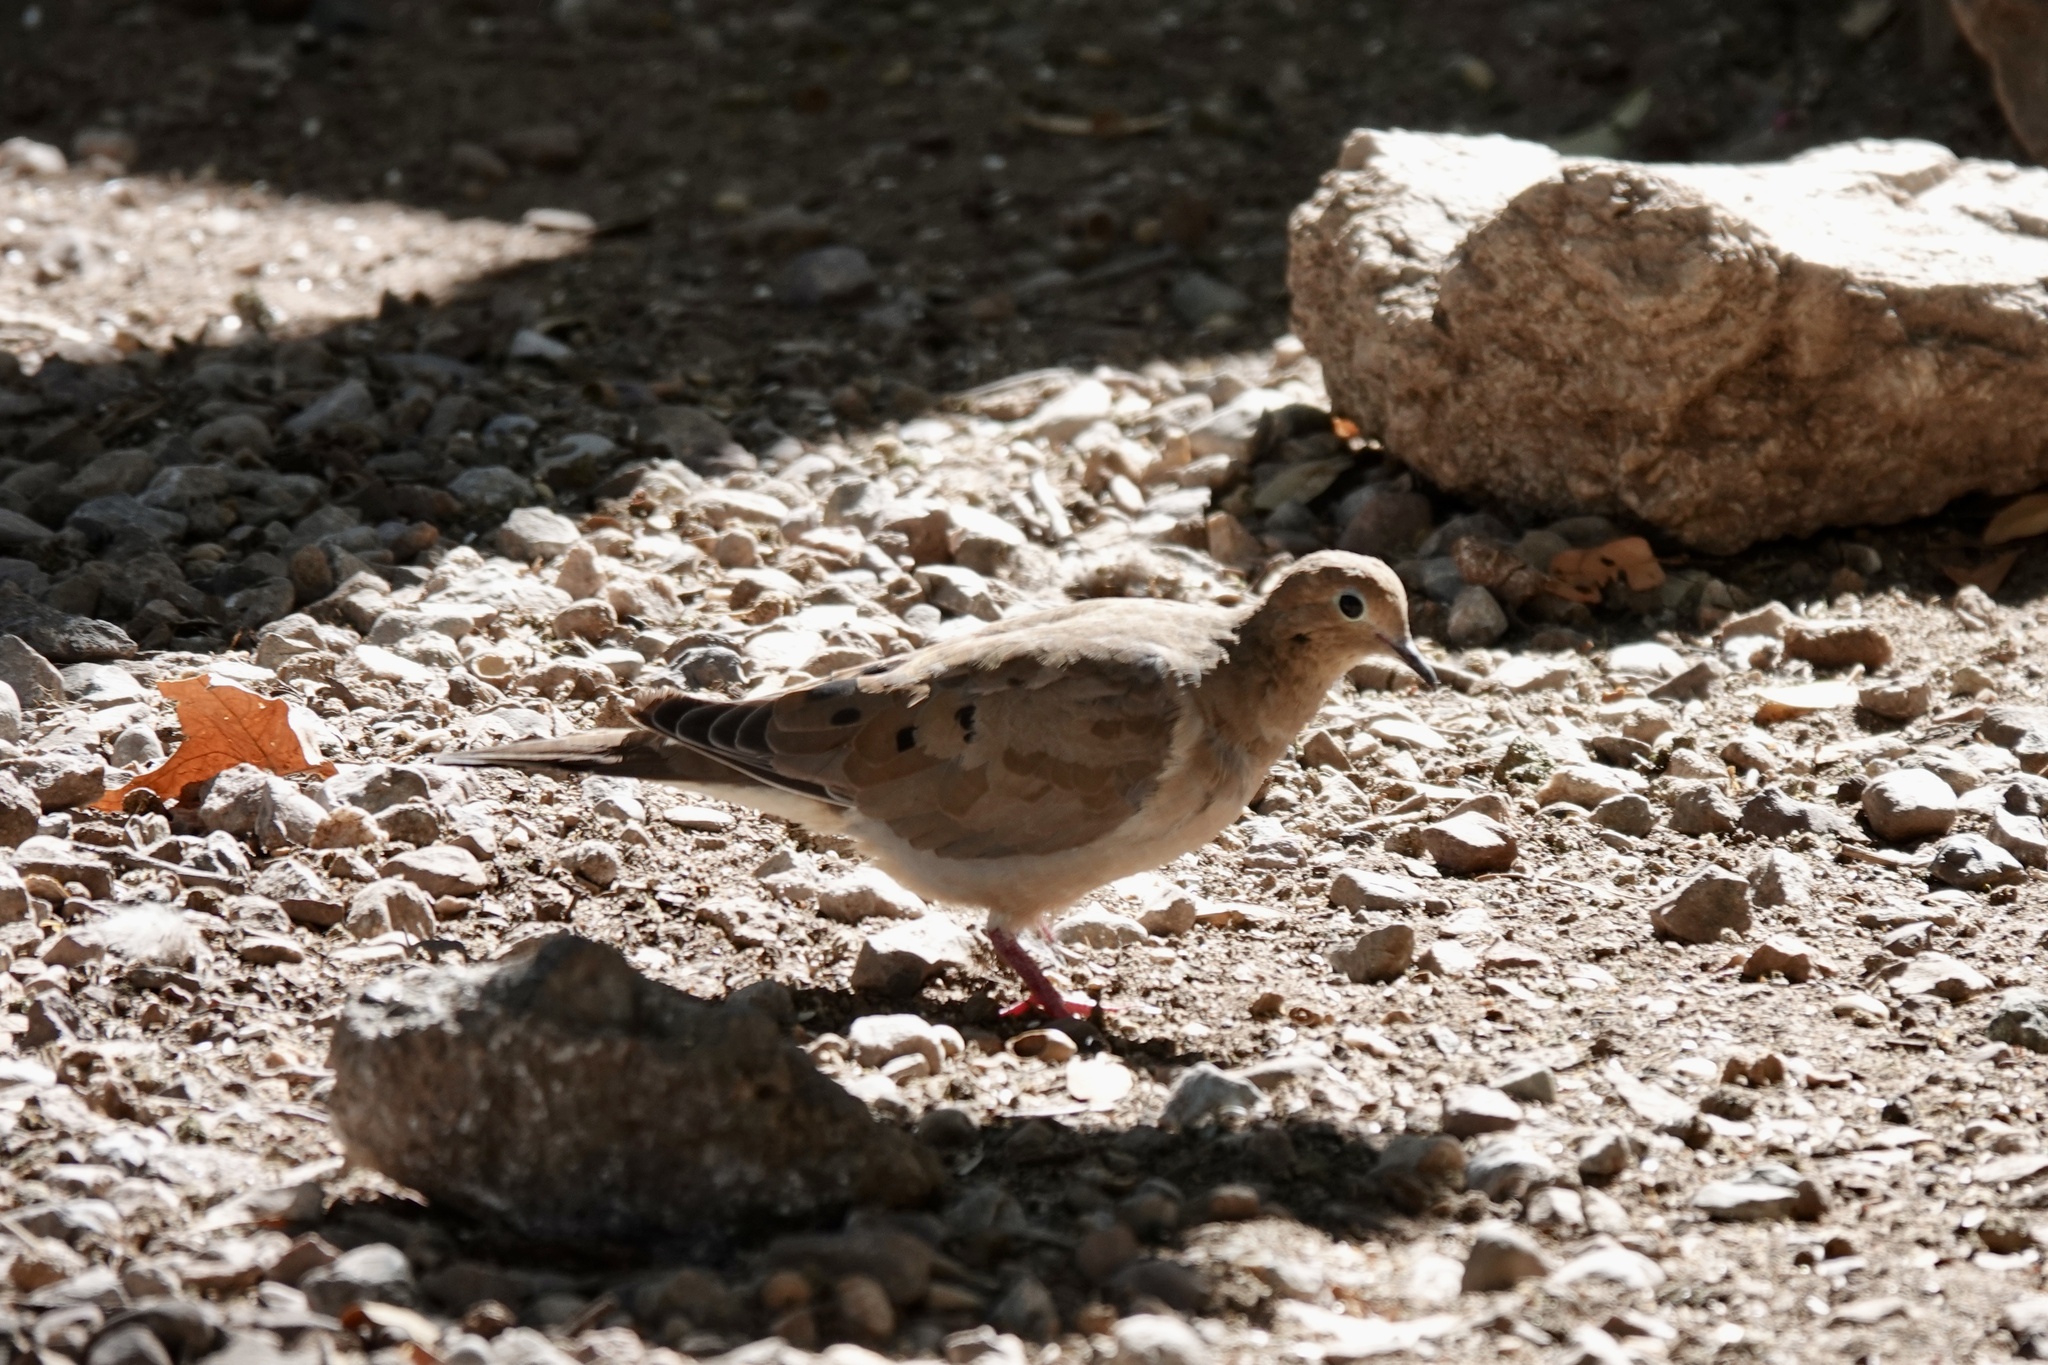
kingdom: Animalia
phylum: Chordata
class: Aves
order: Columbiformes
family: Columbidae
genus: Zenaida
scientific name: Zenaida macroura
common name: Mourning dove
